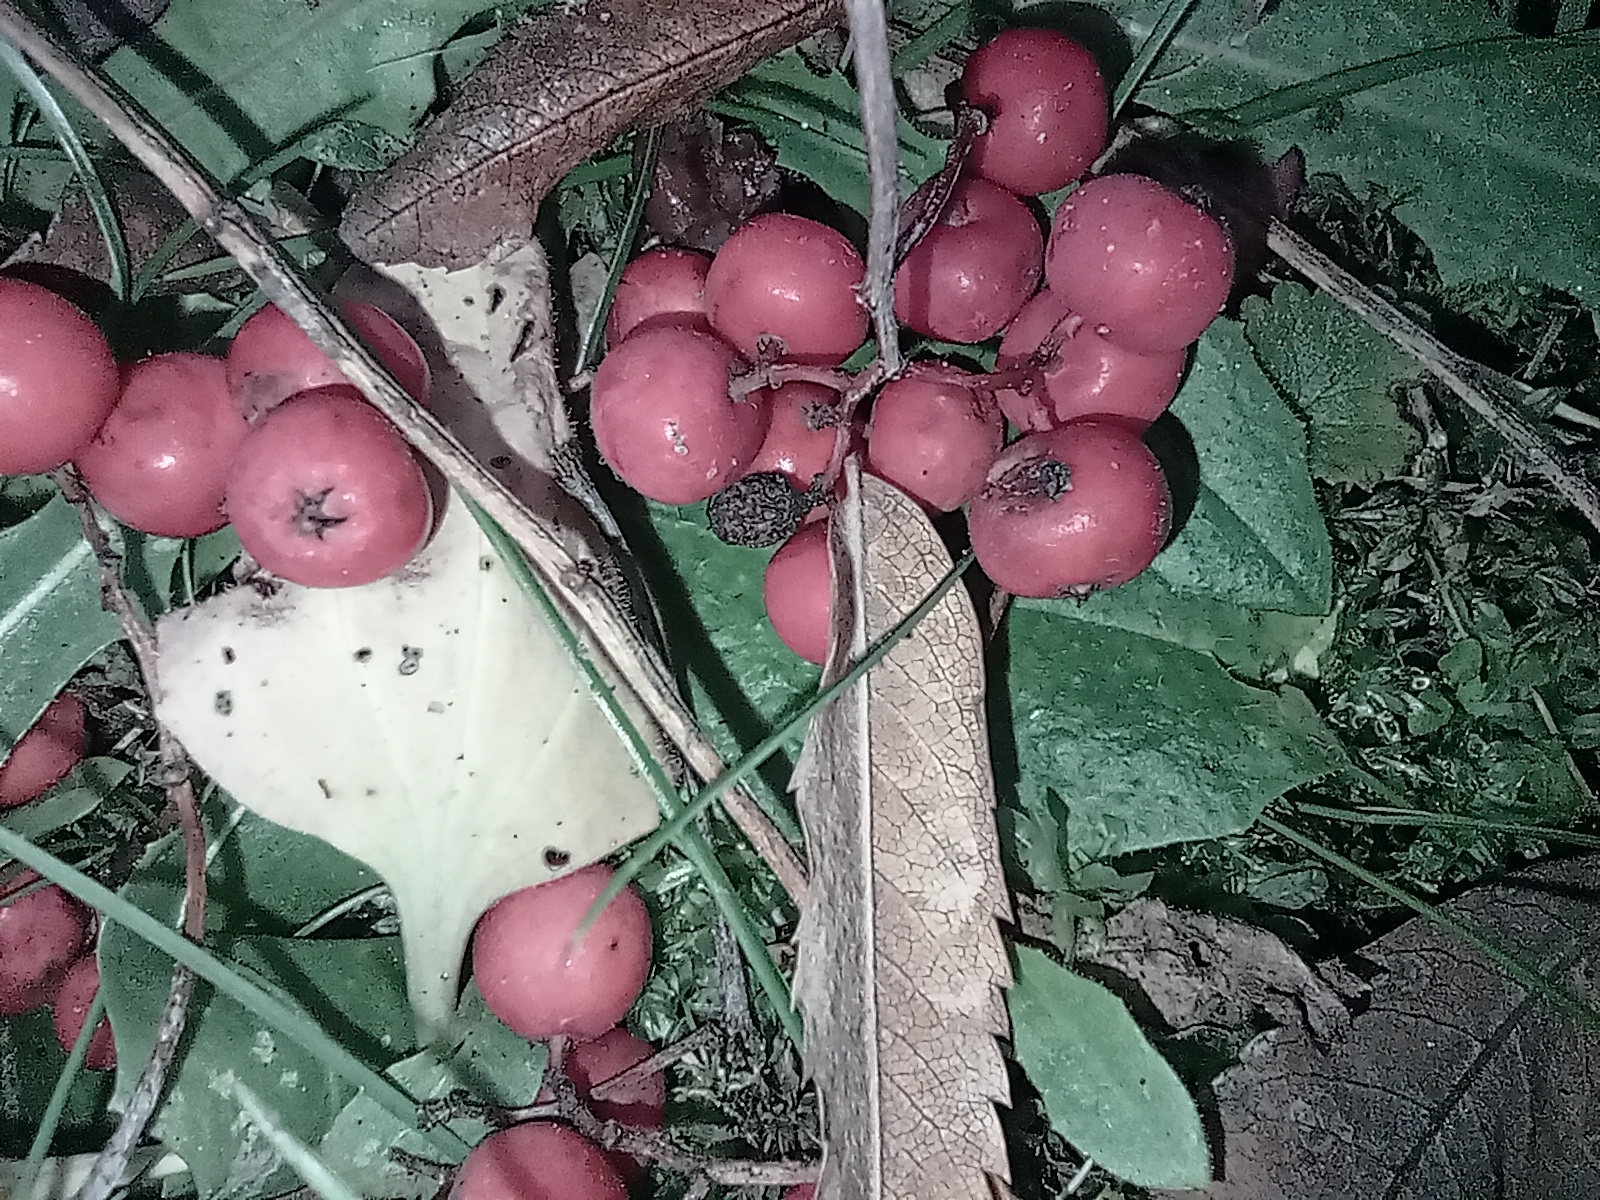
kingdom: Plantae
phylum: Tracheophyta
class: Magnoliopsida
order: Rosales
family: Rosaceae
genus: Sorbus
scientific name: Sorbus aucuparia
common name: Rowan
